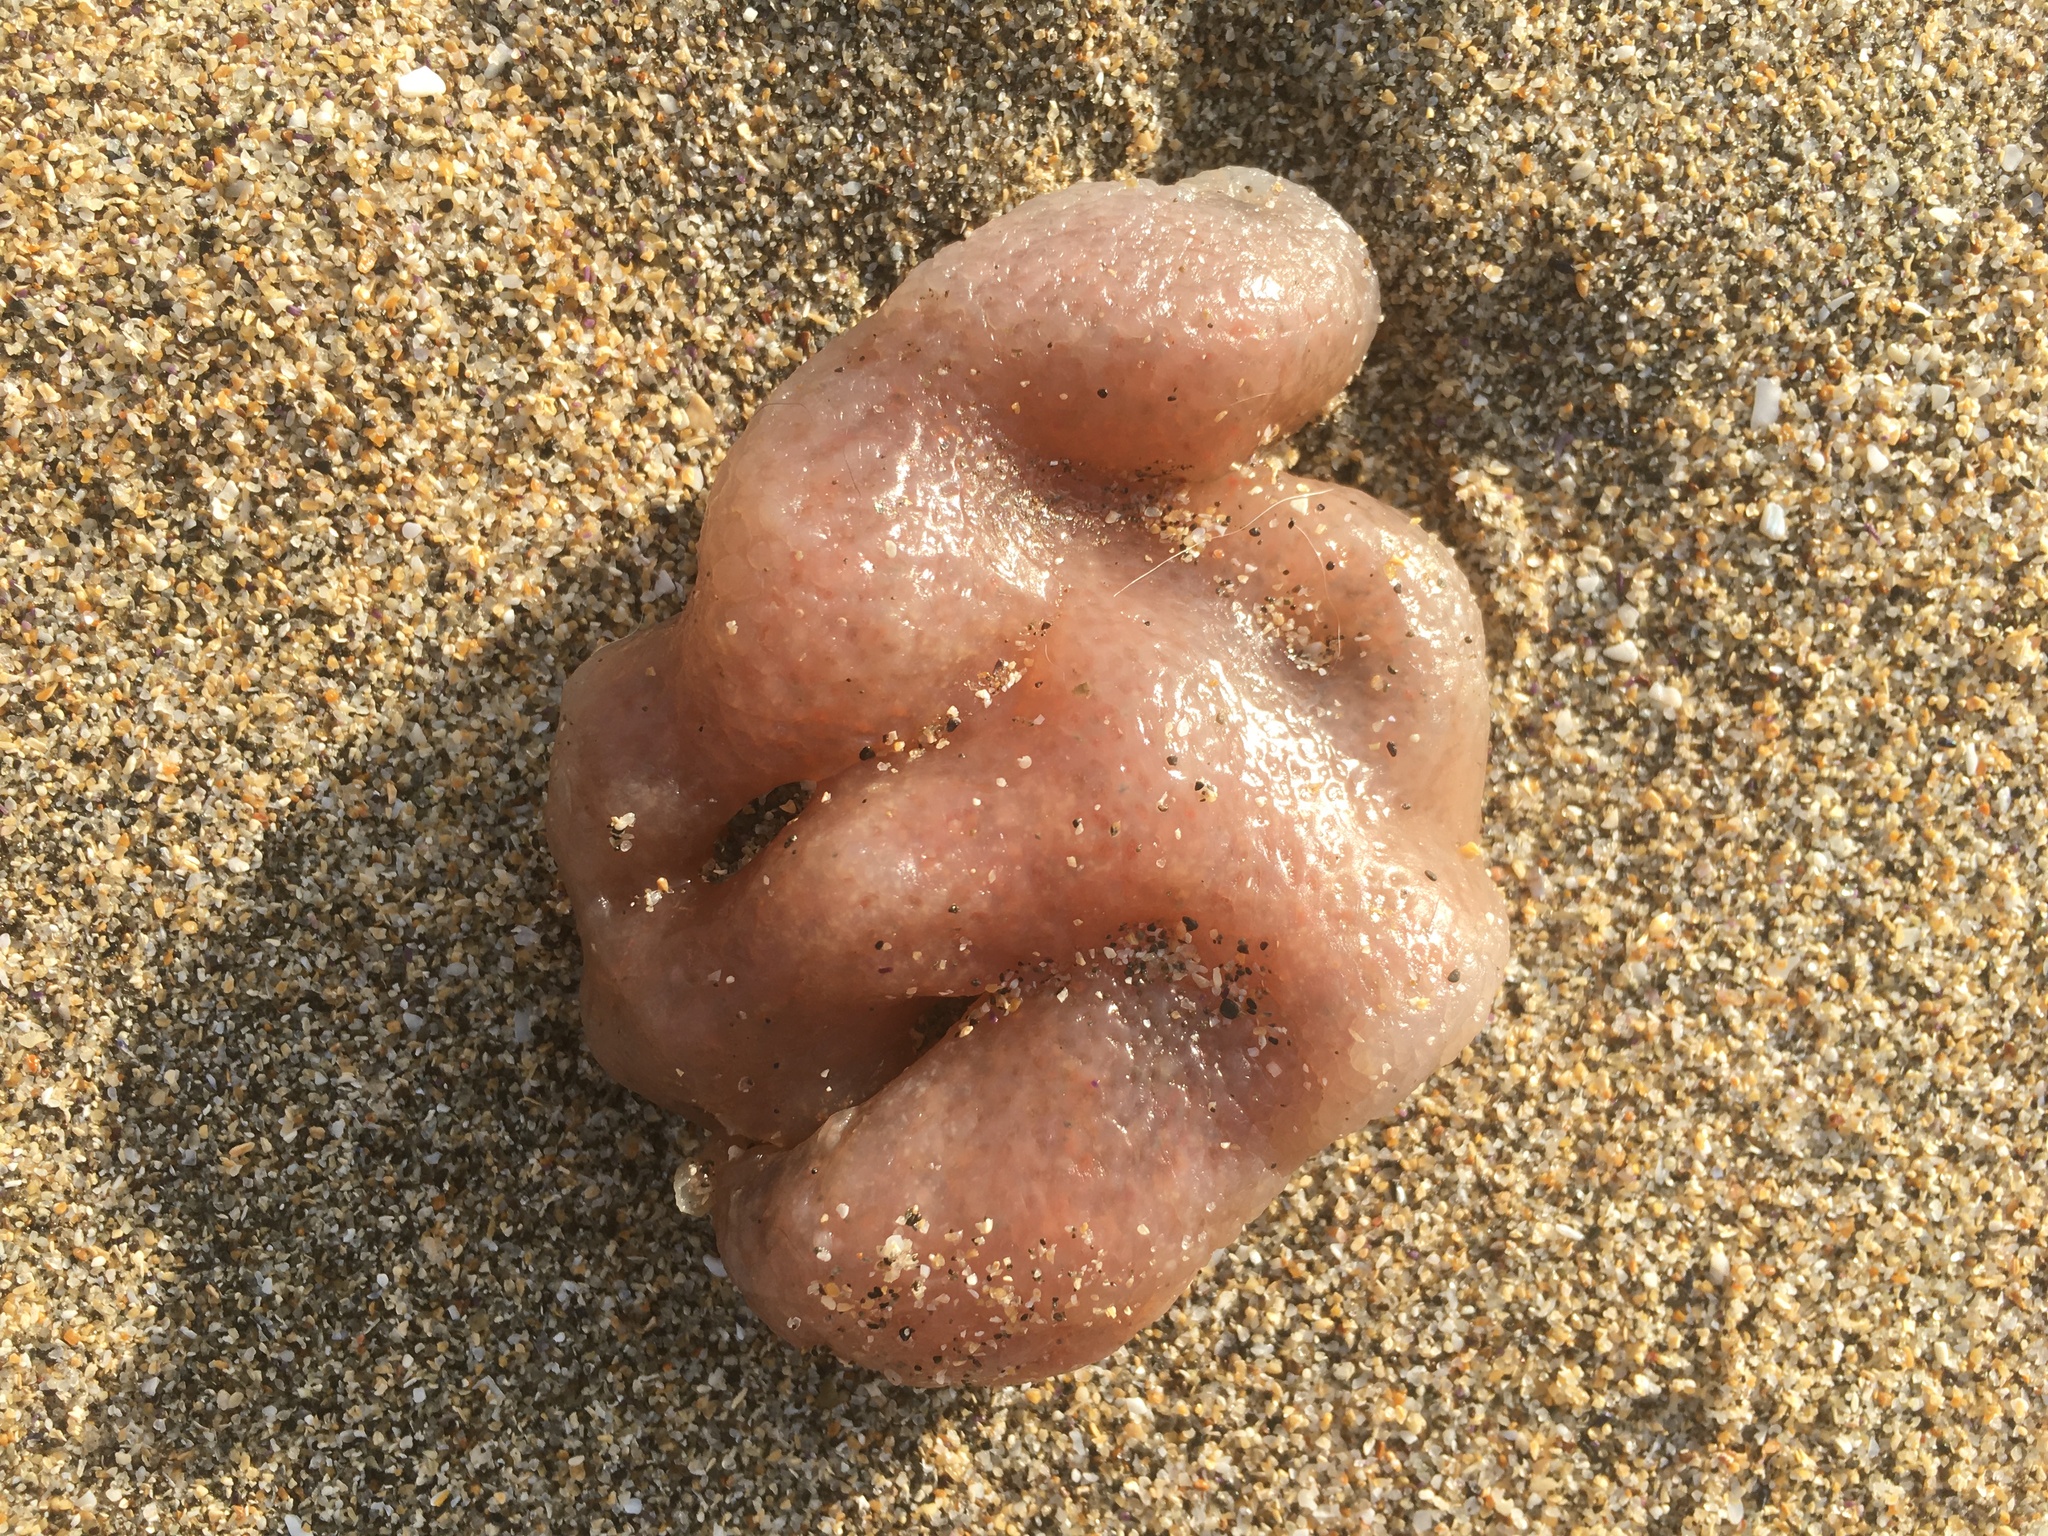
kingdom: Animalia
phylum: Chordata
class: Ascidiacea
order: Aplousobranchia
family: Polyclinidae
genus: Aplidium
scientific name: Aplidium californicum
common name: Sea pork
